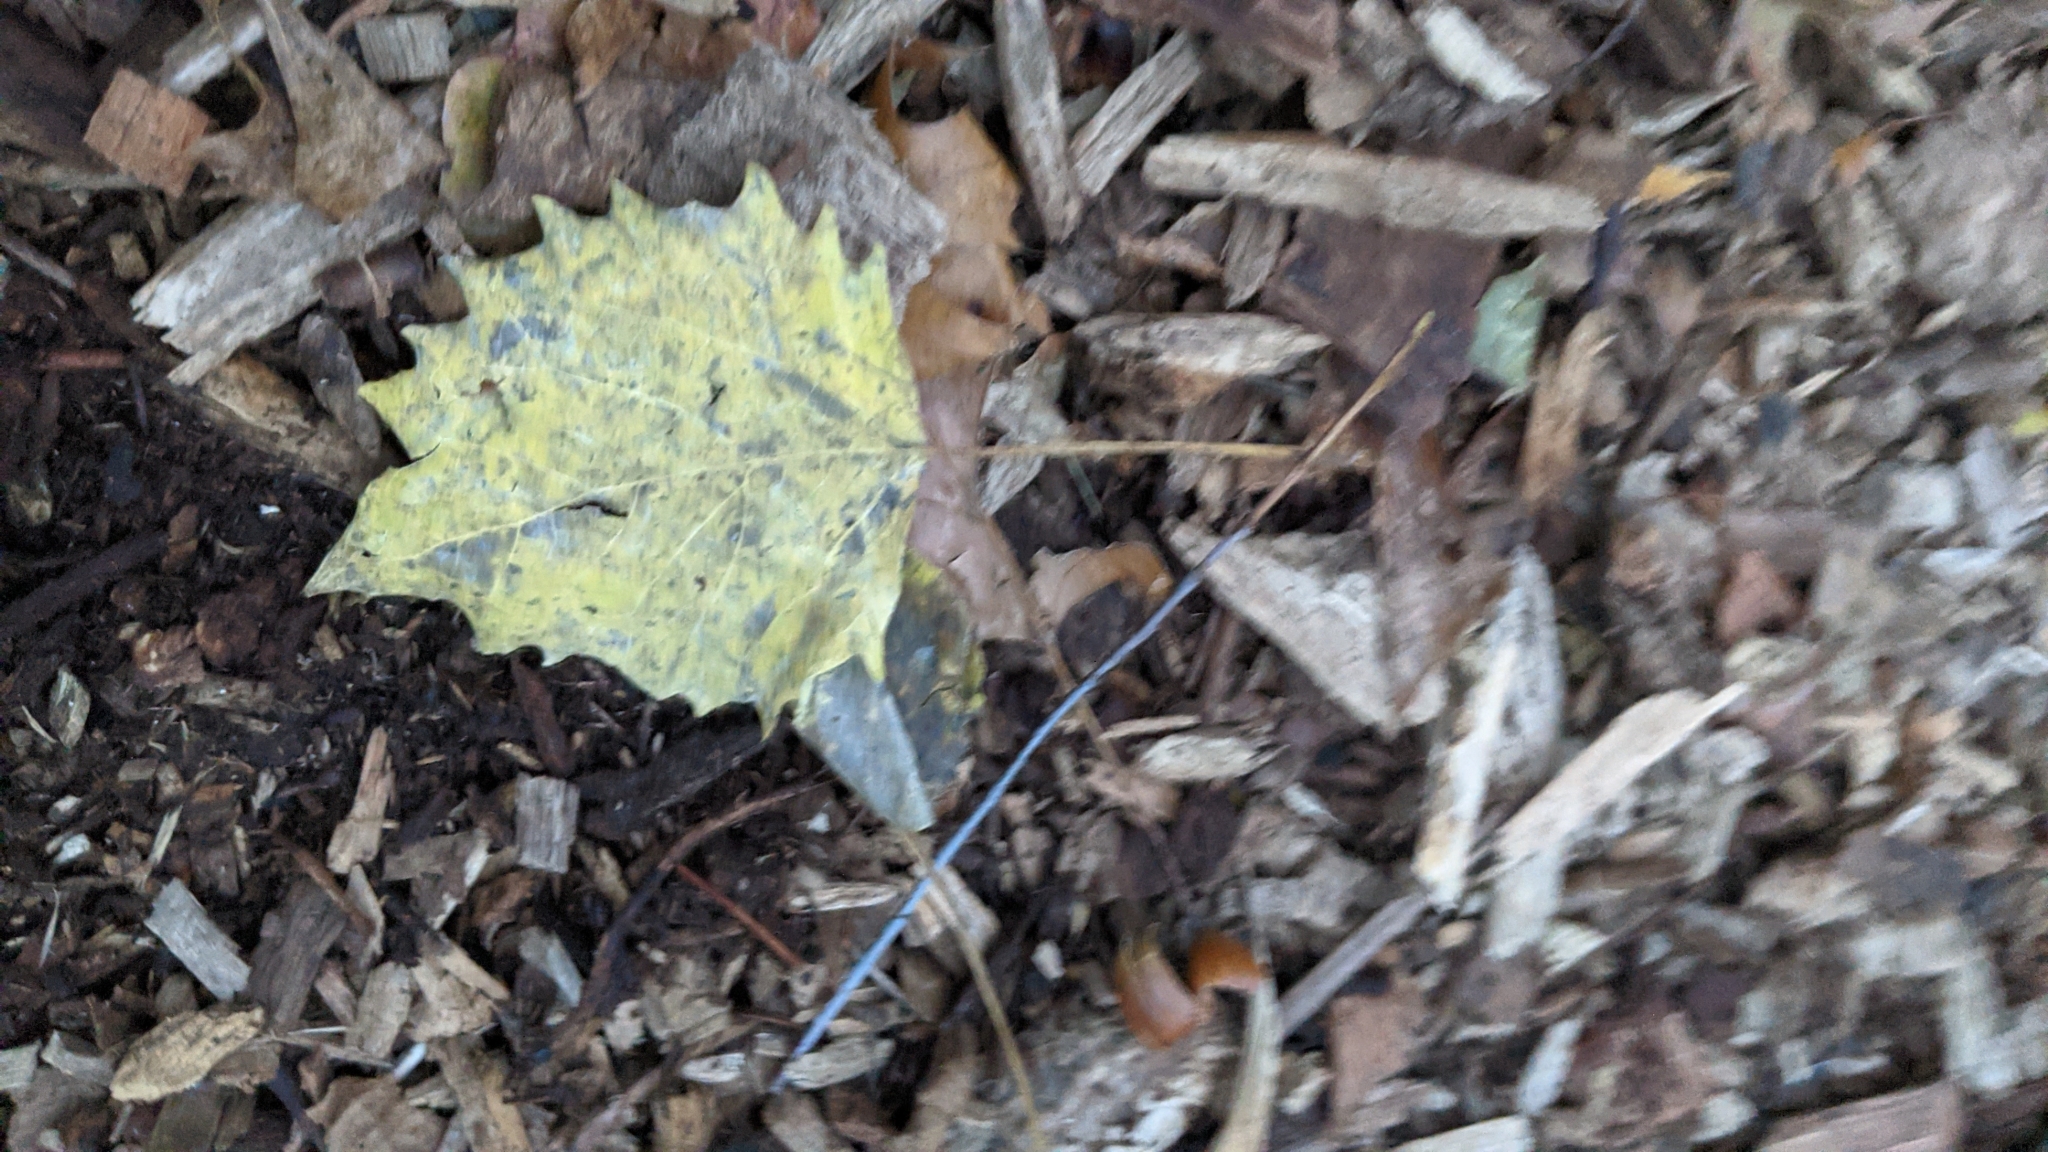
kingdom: Plantae
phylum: Tracheophyta
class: Magnoliopsida
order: Malpighiales
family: Salicaceae
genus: Populus
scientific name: Populus grandidentata
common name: Bigtooth aspen
